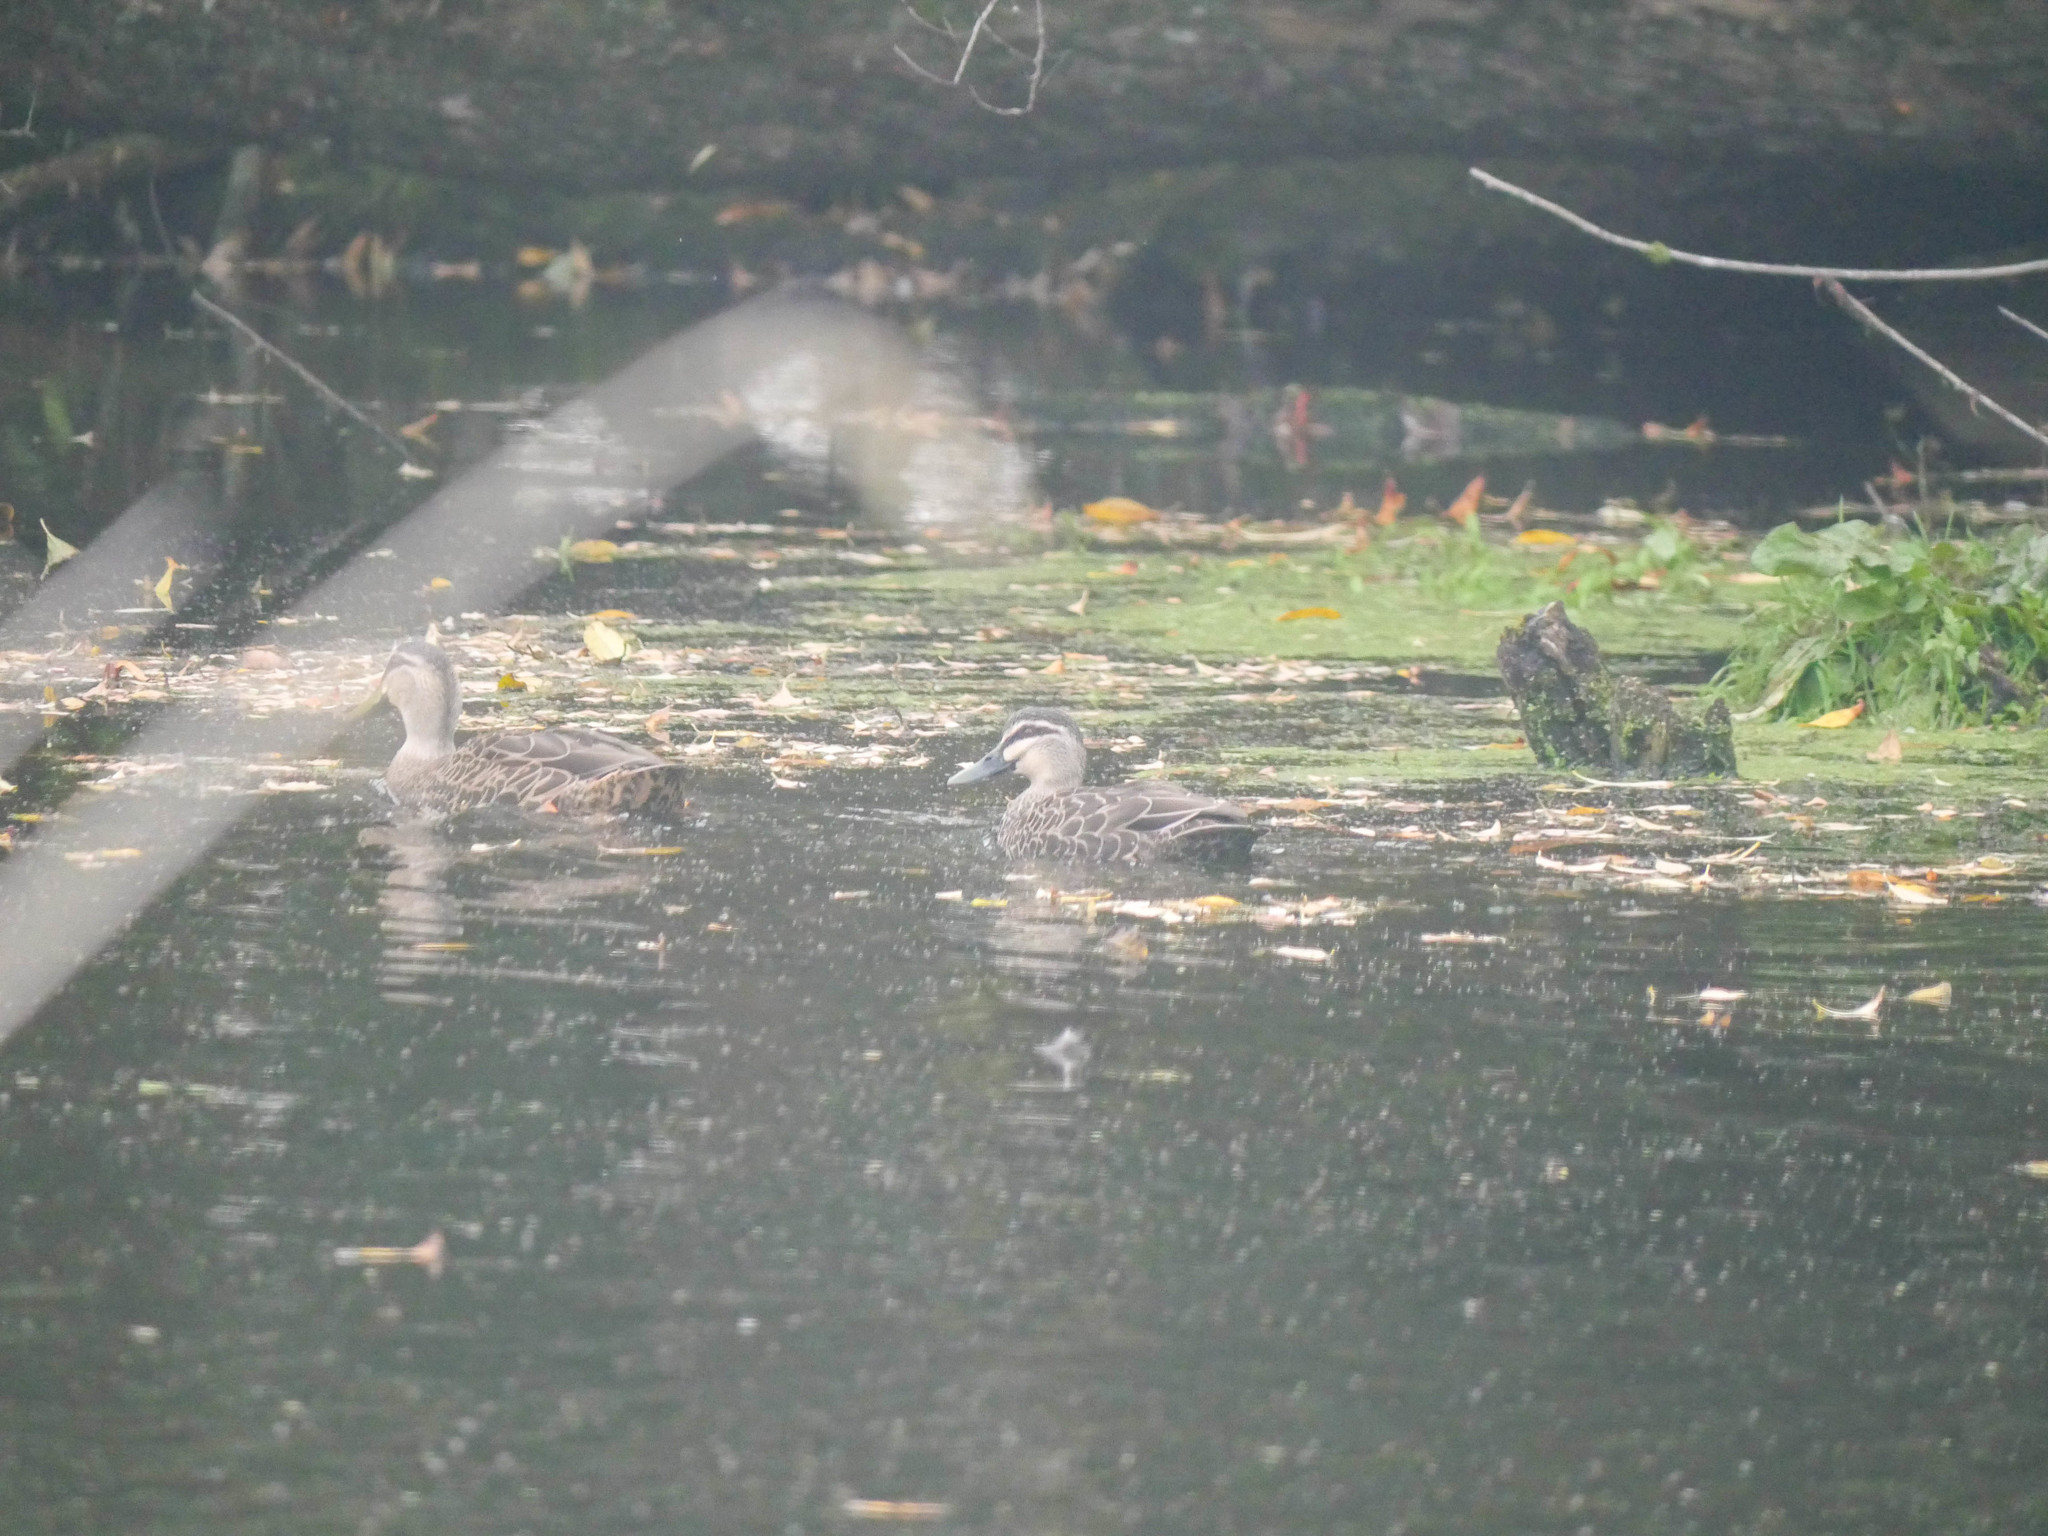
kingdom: Animalia
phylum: Chordata
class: Aves
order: Anseriformes
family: Anatidae
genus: Anas
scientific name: Anas
